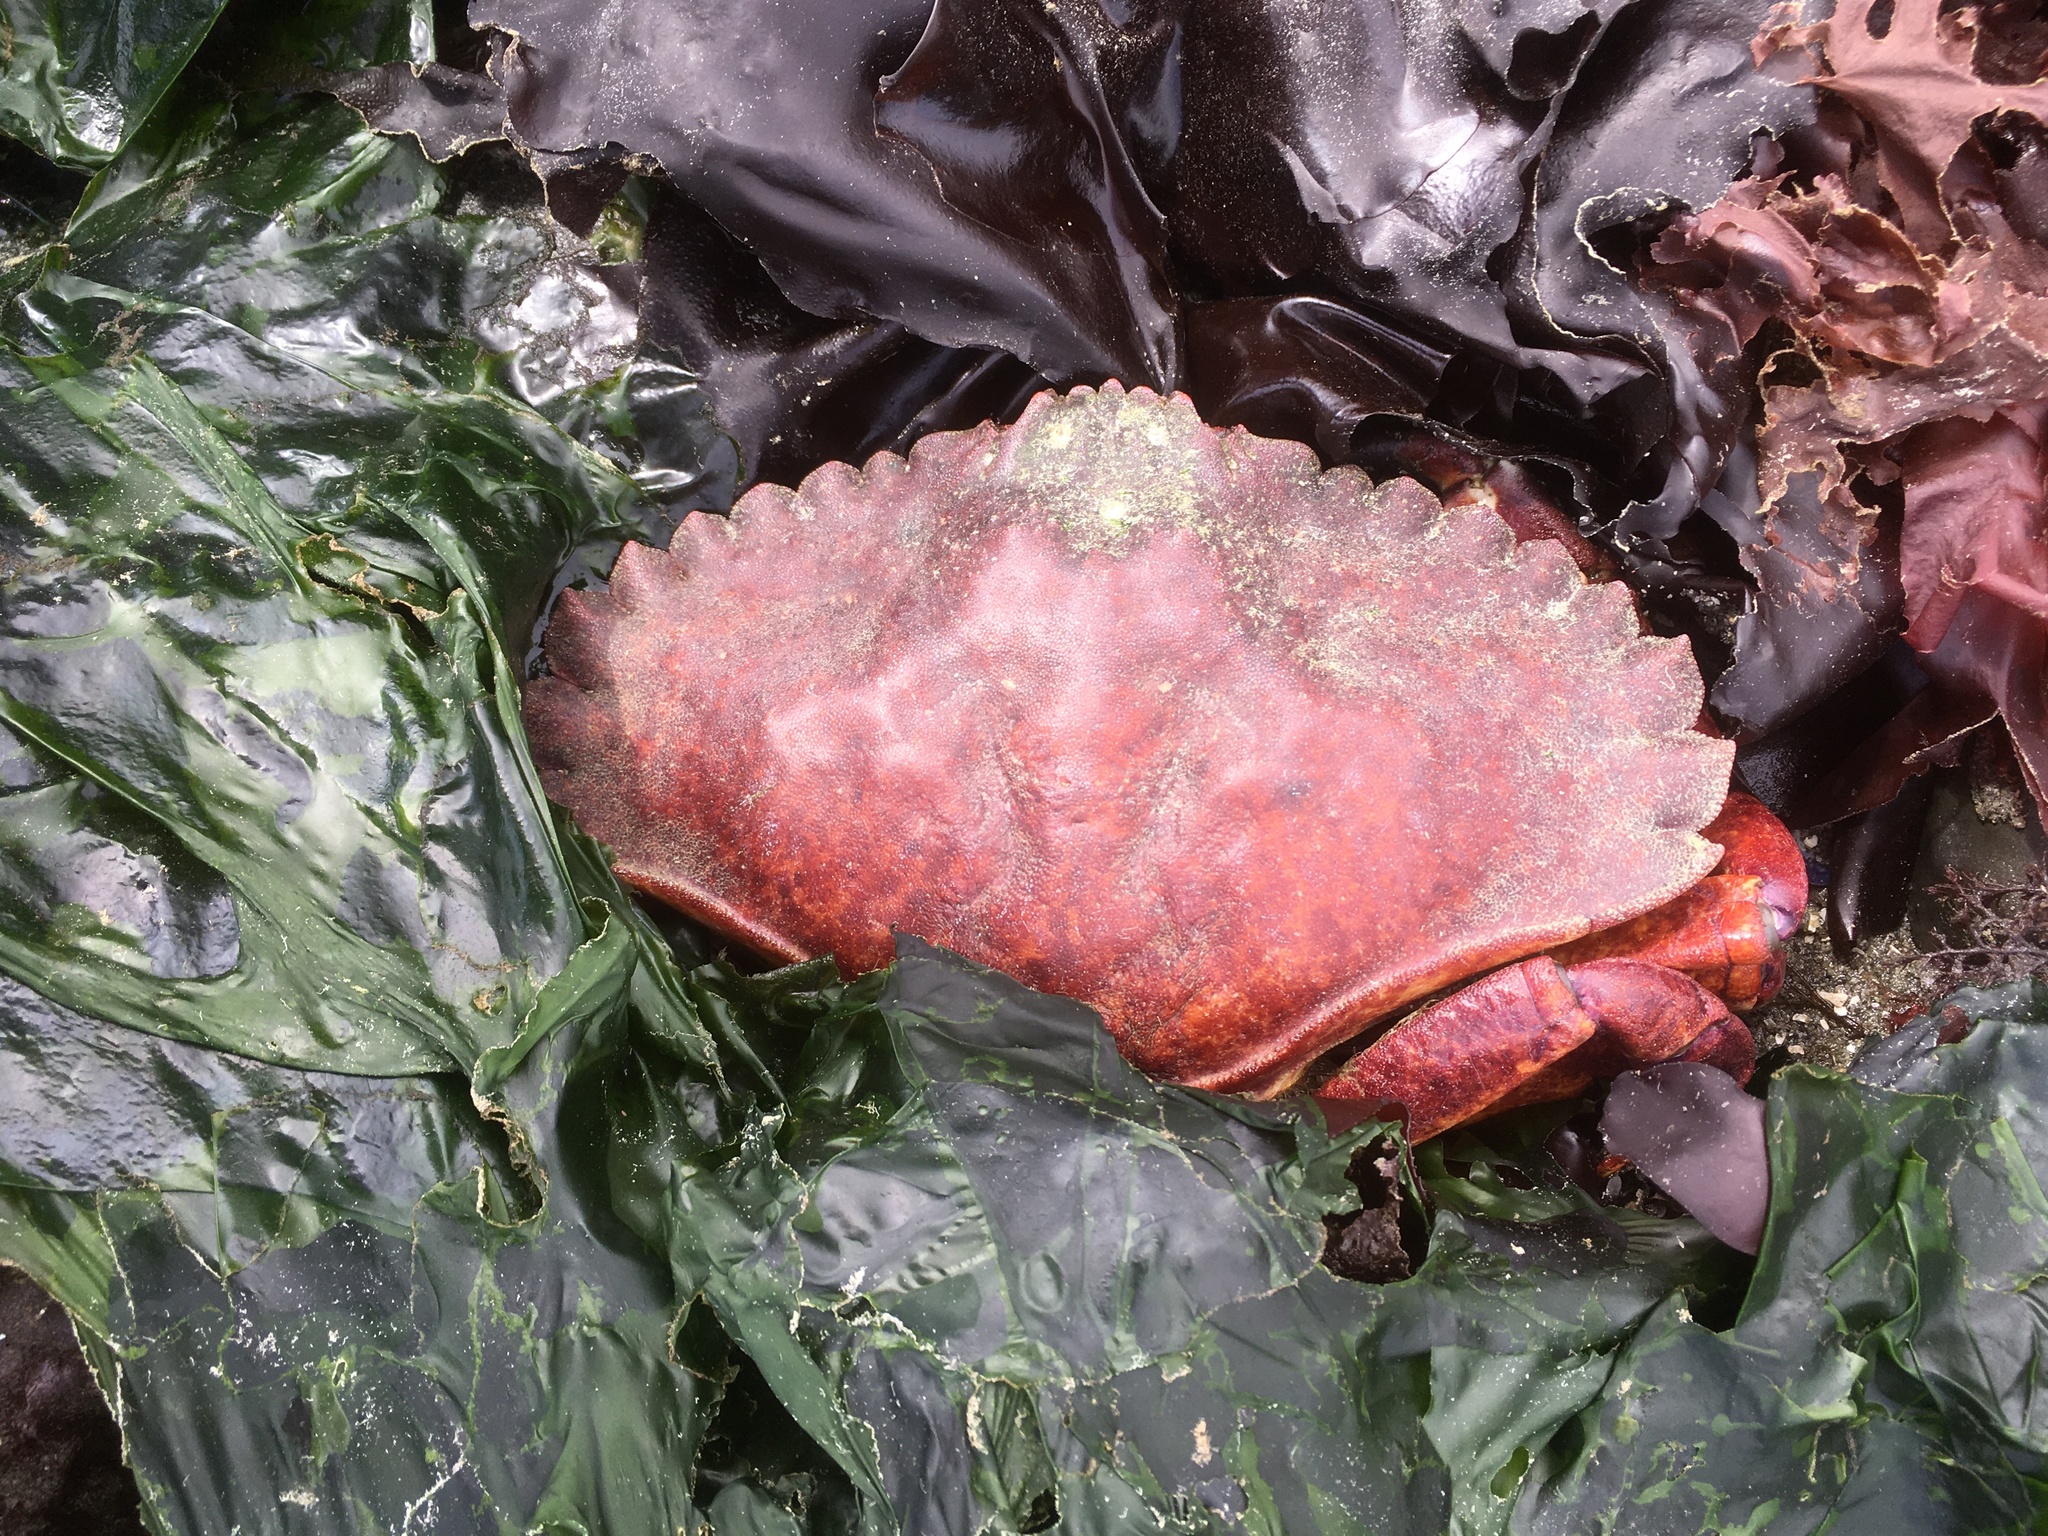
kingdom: Animalia
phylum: Arthropoda
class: Malacostraca
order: Decapoda
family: Cancridae
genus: Cancer
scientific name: Cancer productus
